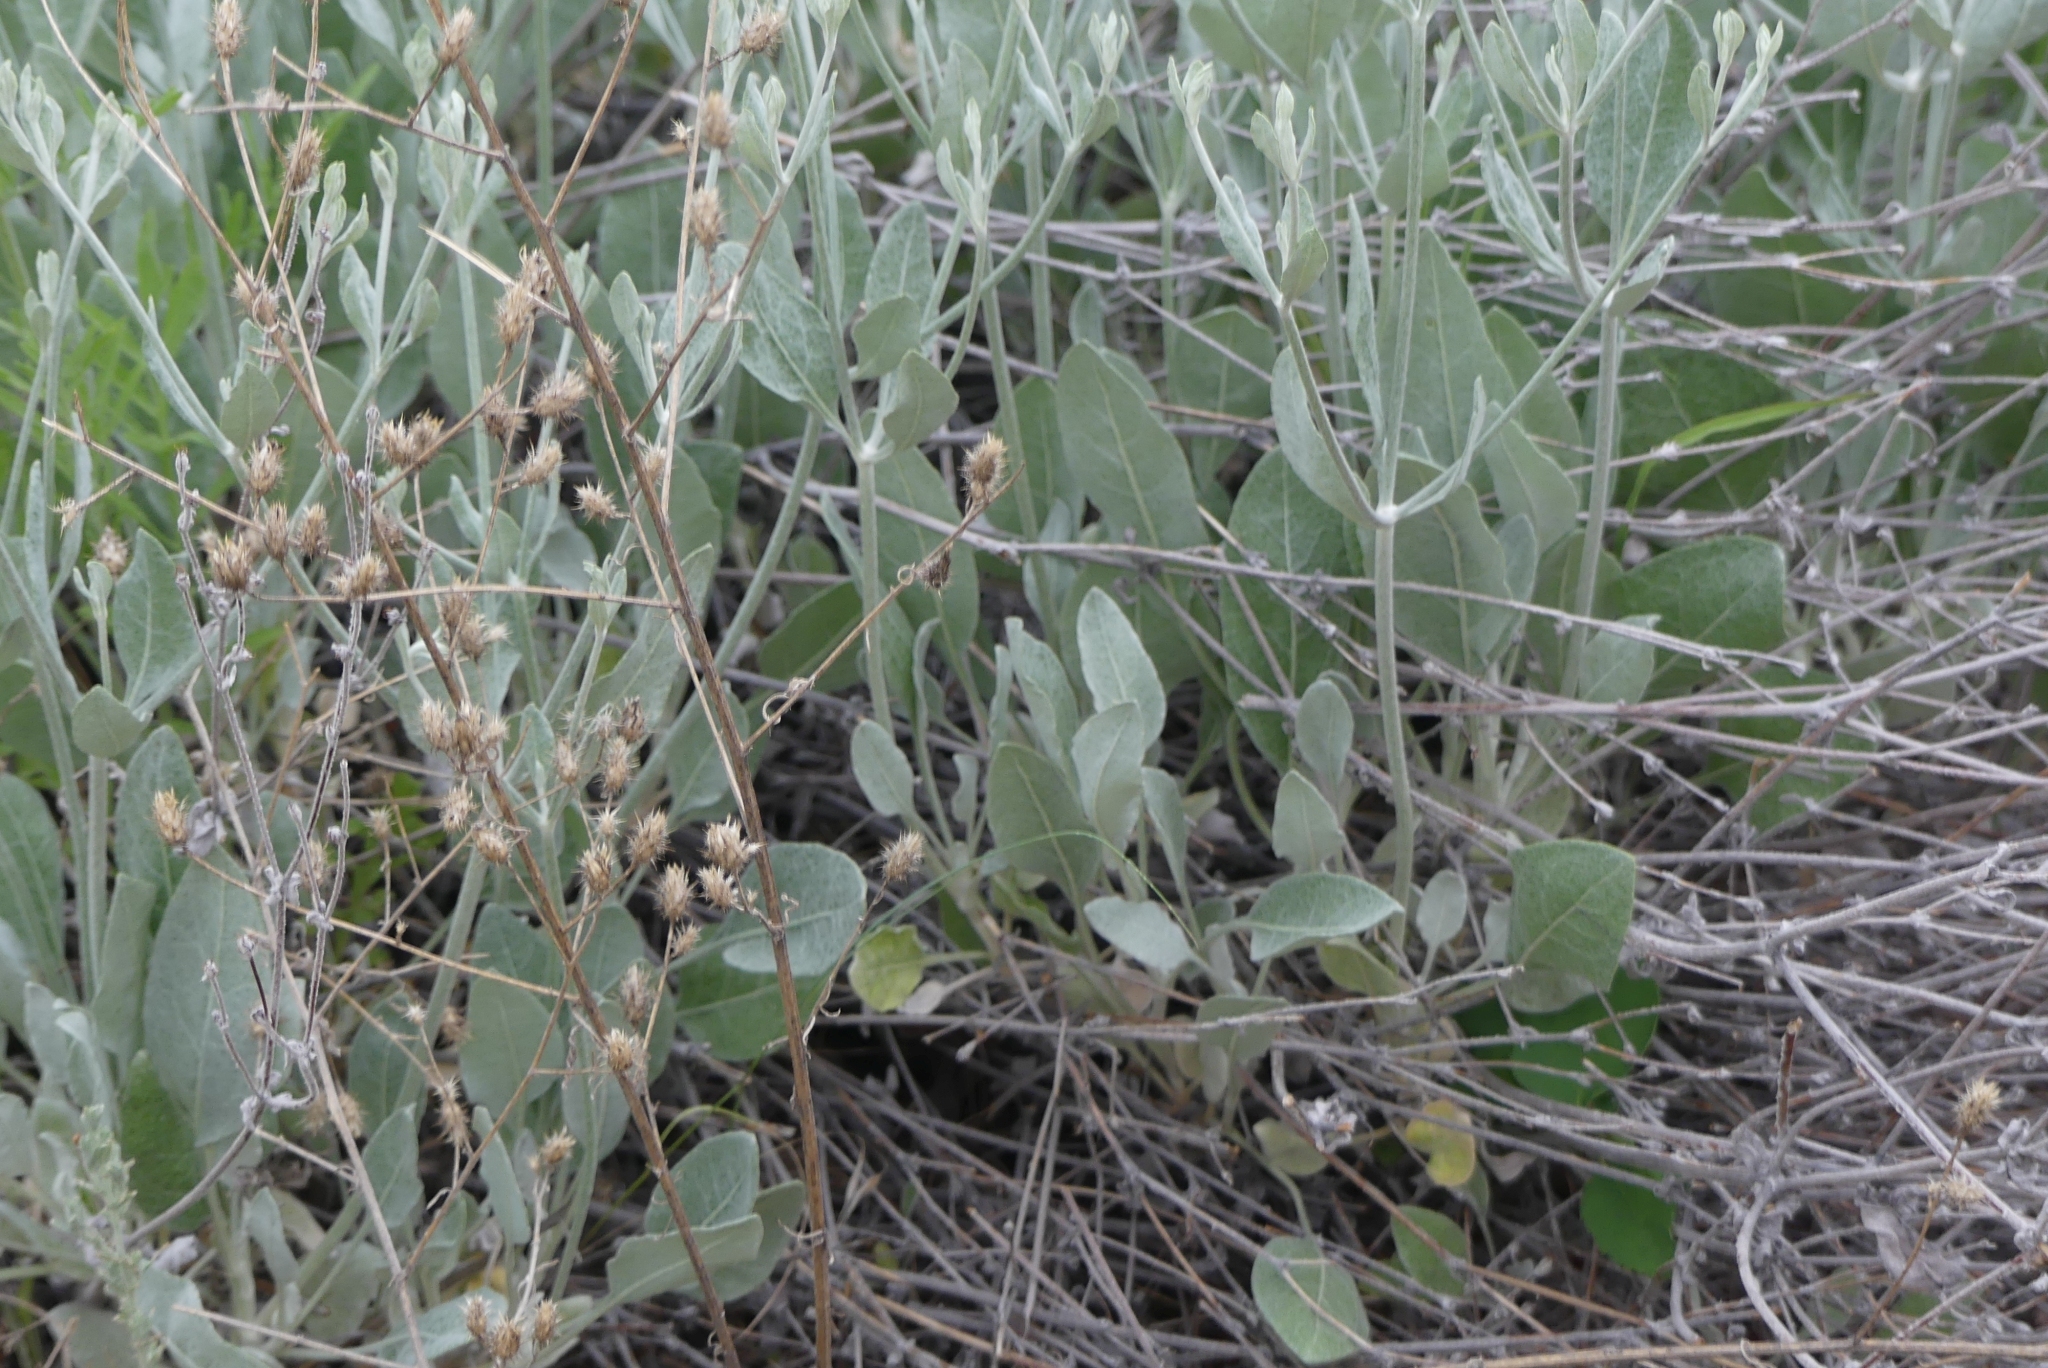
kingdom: Plantae
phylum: Tracheophyta
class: Magnoliopsida
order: Caryophyllales
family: Polygonaceae
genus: Eriogonum
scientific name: Eriogonum niveum
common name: Snow wild buckwheat
